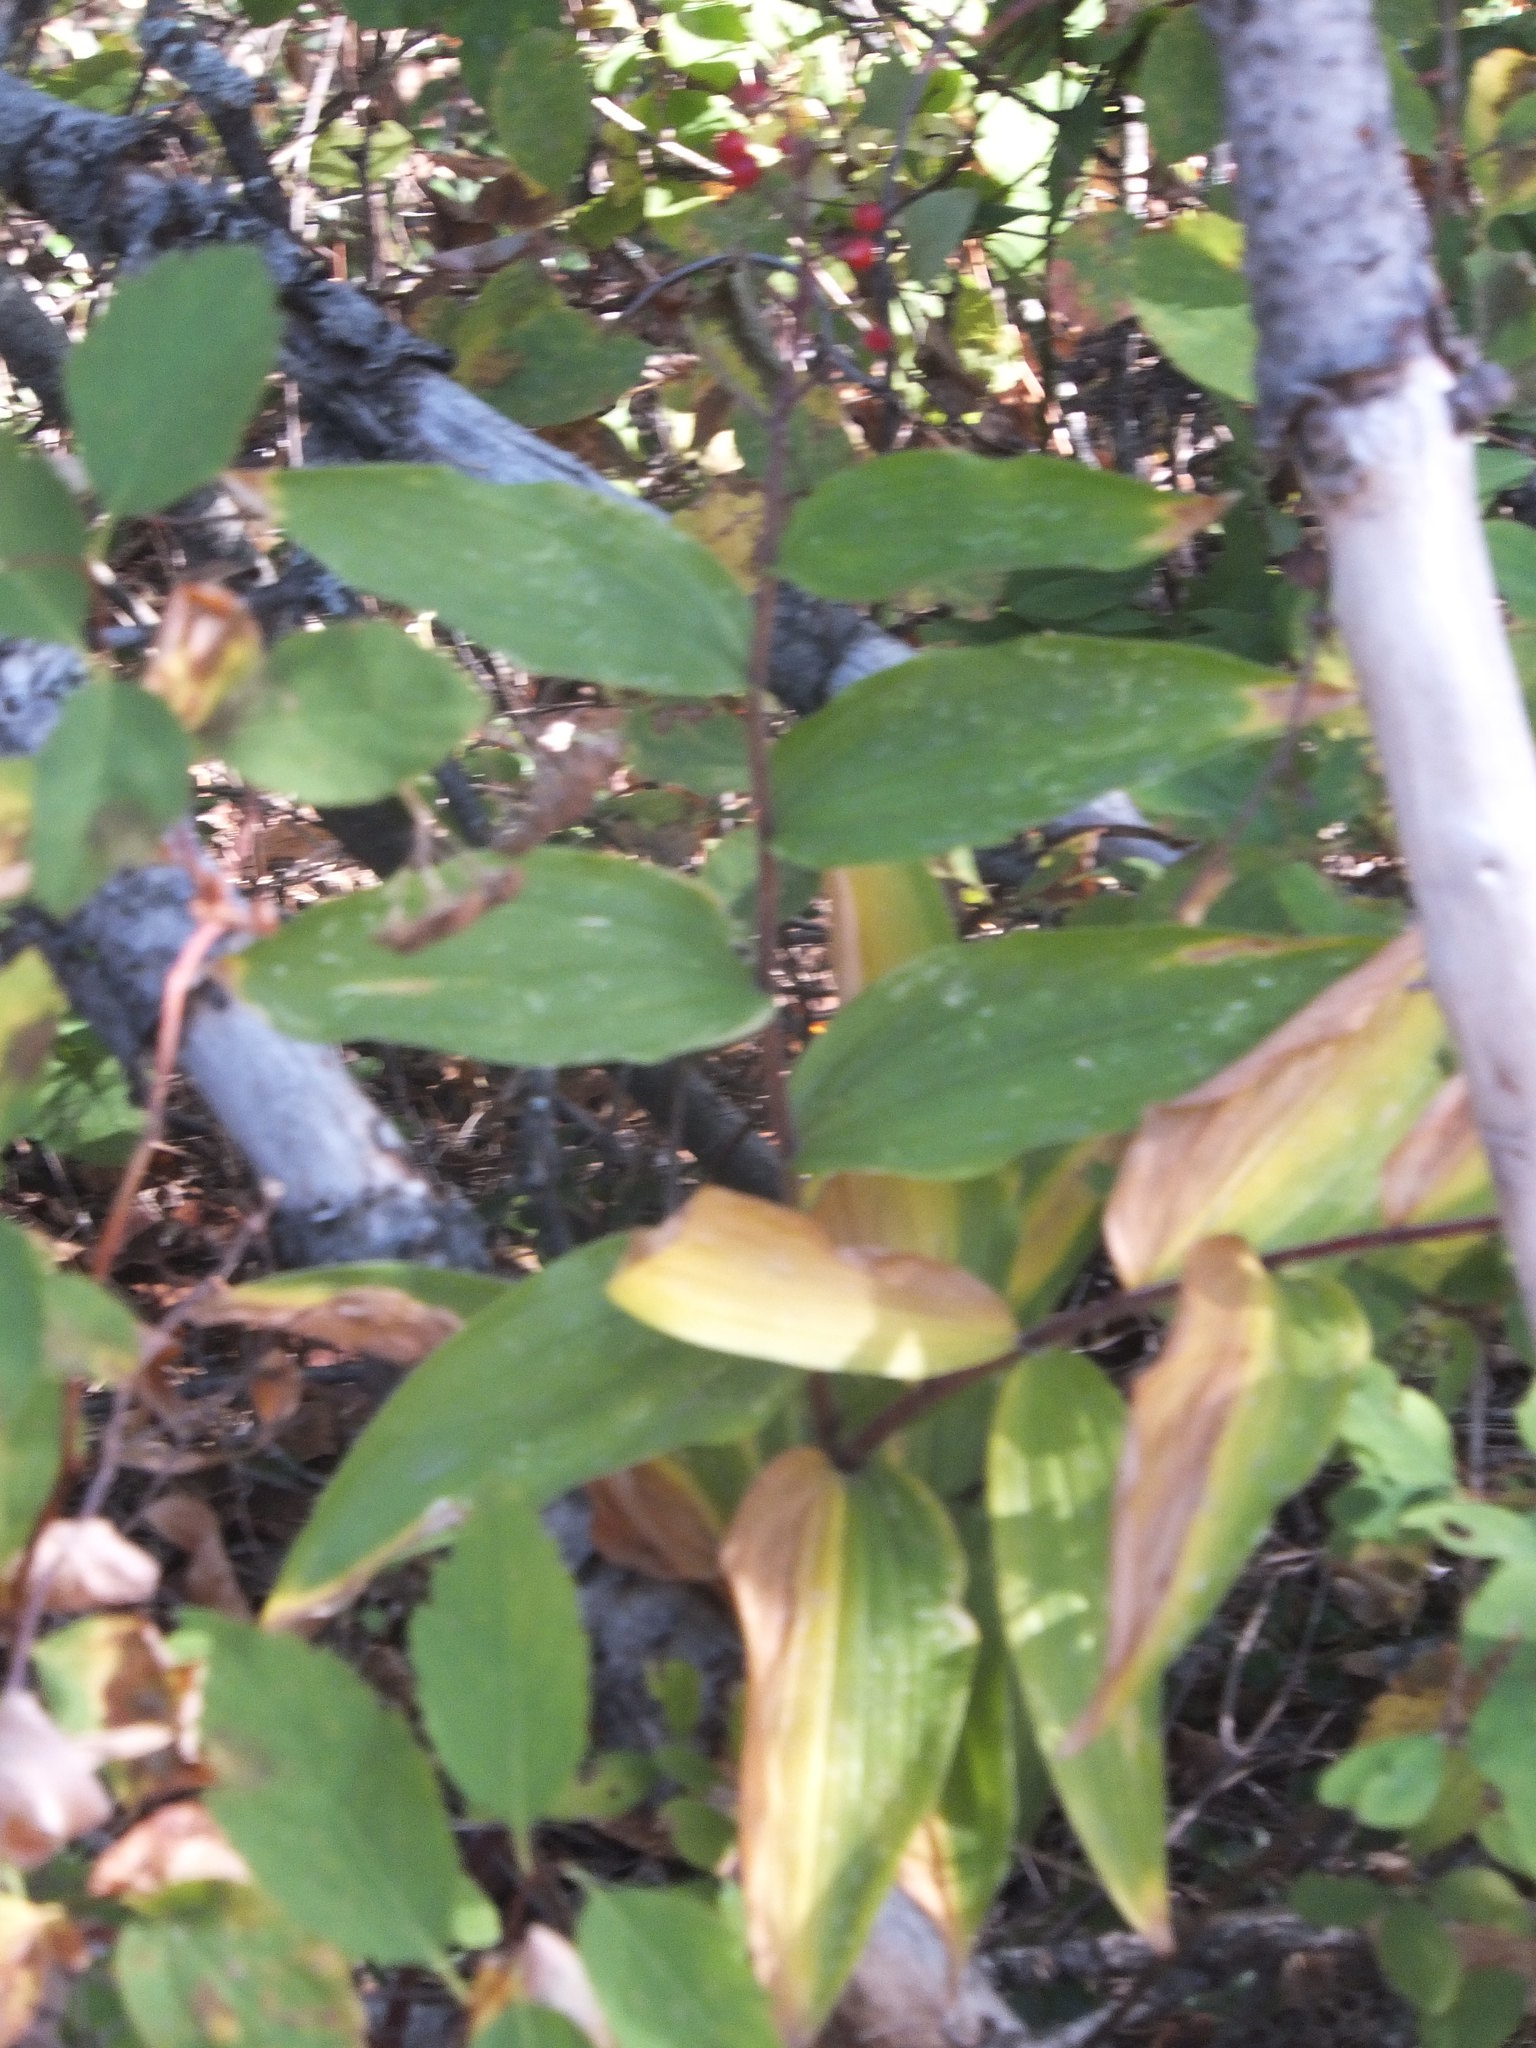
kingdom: Plantae
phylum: Tracheophyta
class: Liliopsida
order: Asparagales
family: Asparagaceae
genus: Maianthemum
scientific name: Maianthemum racemosum
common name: False spikenard
